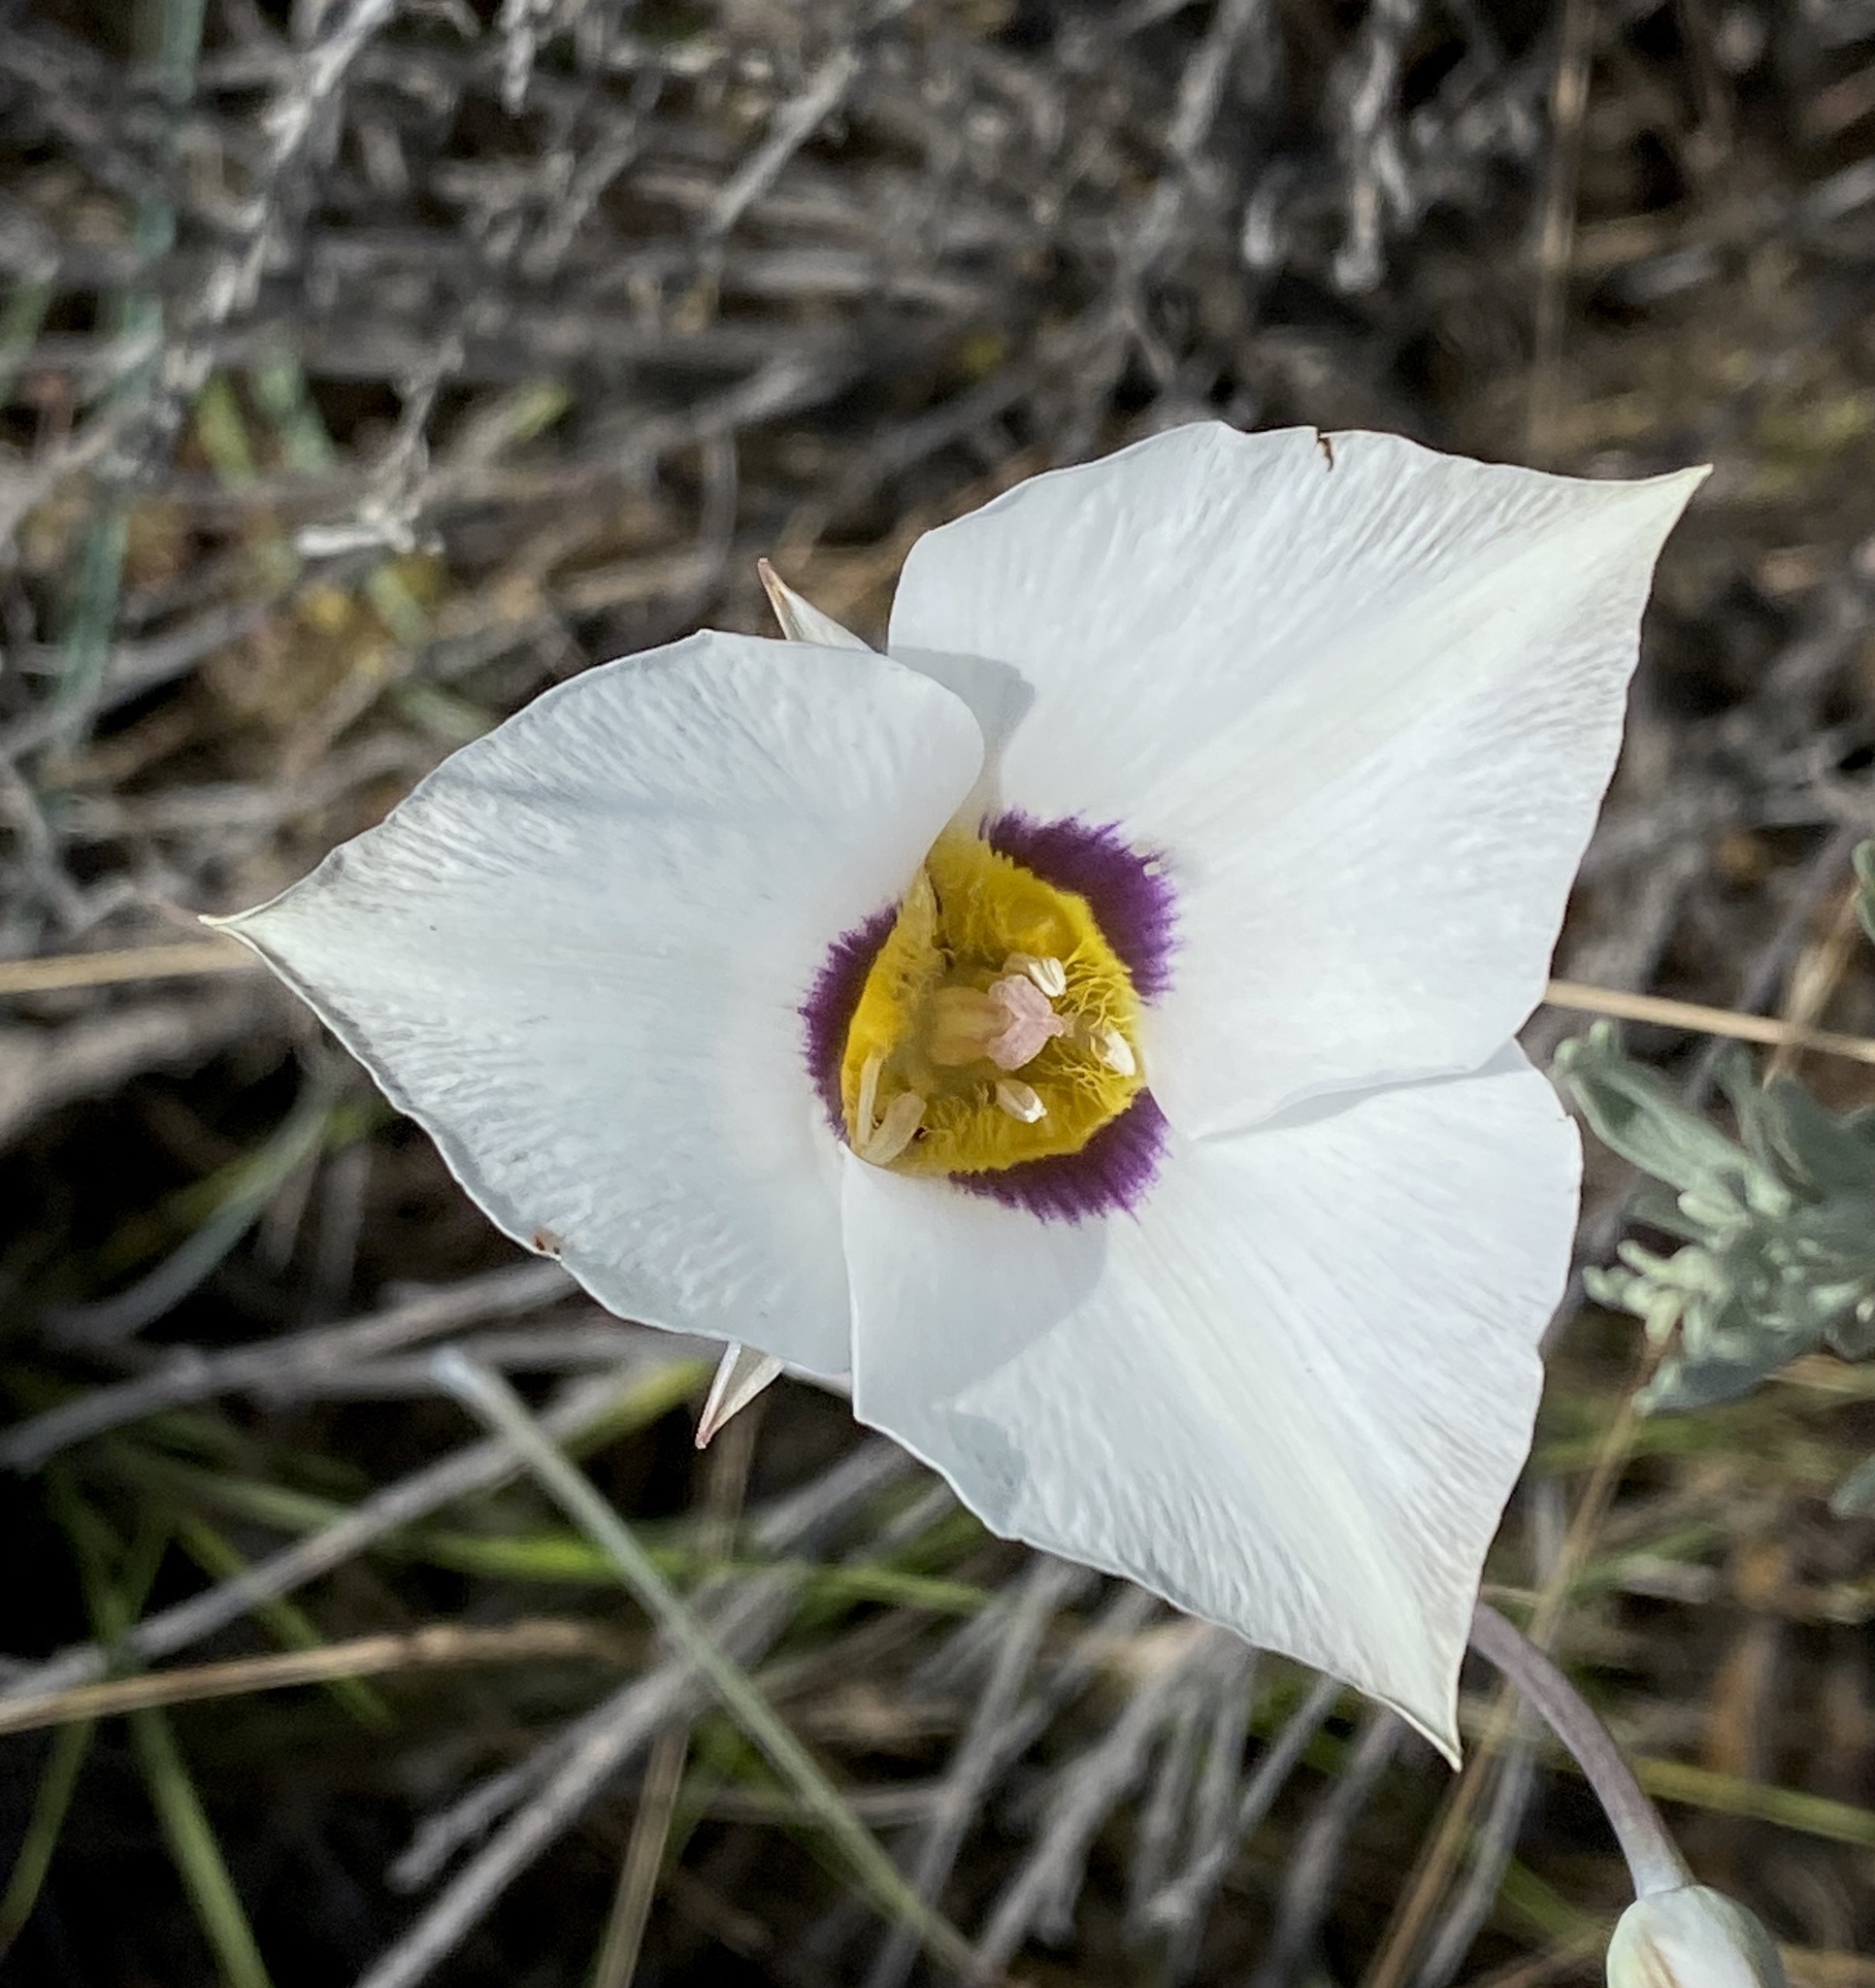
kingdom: Plantae
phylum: Tracheophyta
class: Liliopsida
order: Liliales
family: Liliaceae
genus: Calochortus
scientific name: Calochortus bruneaunis
